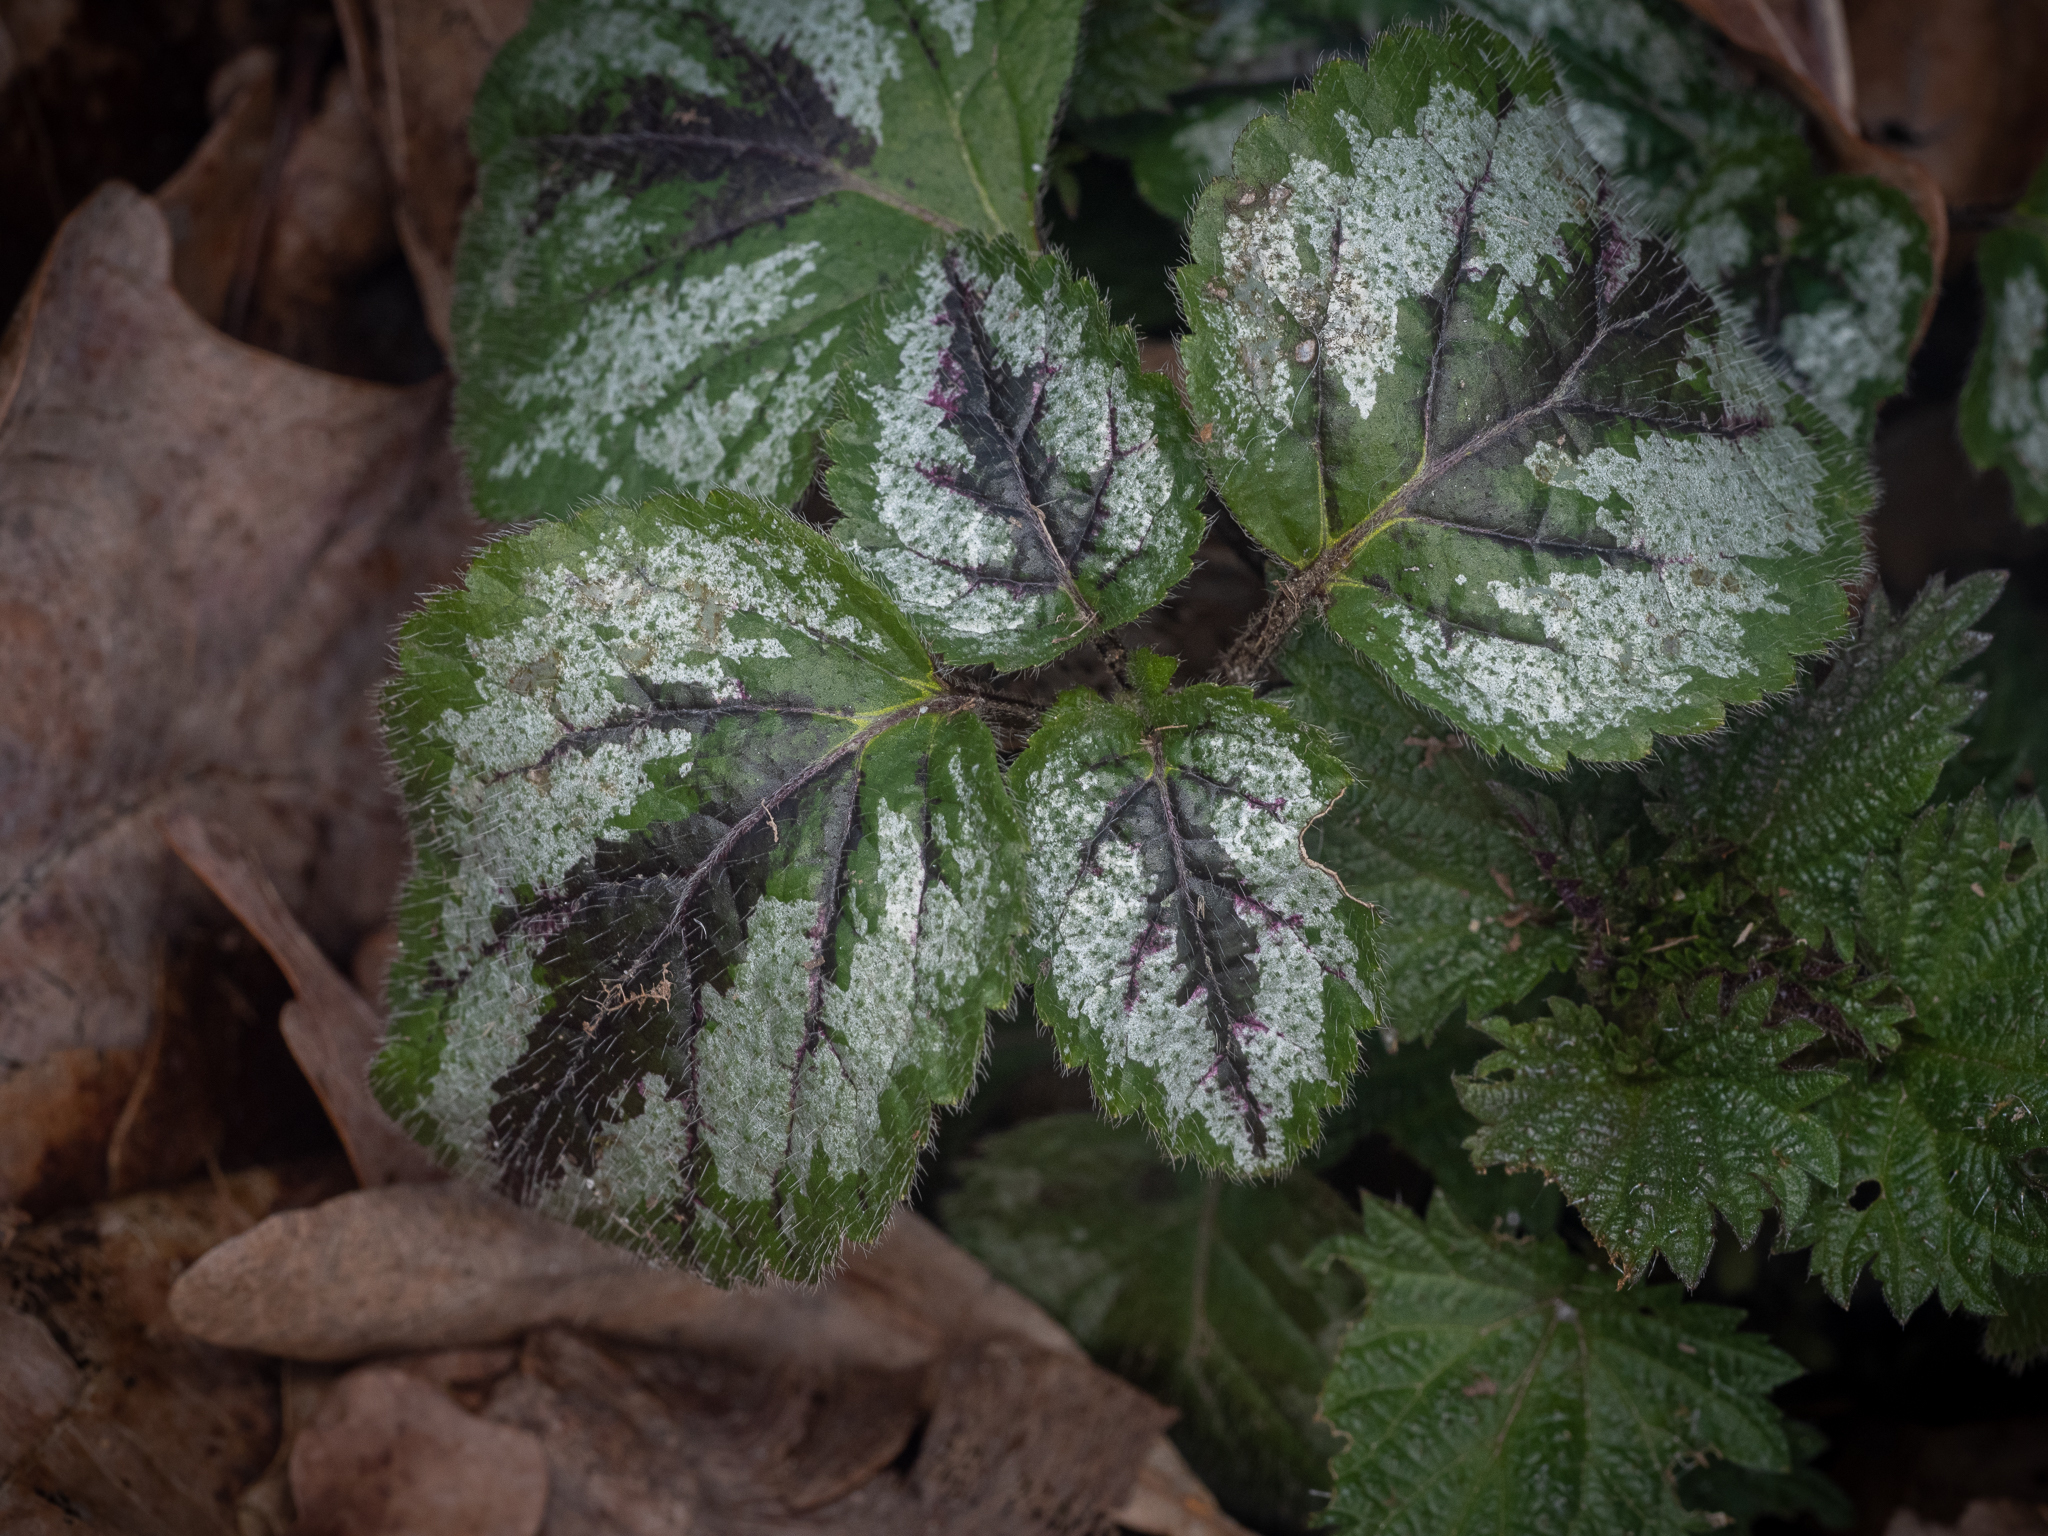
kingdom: Plantae
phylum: Tracheophyta
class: Magnoliopsida
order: Lamiales
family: Lamiaceae
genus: Lamium
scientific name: Lamium galeobdolon
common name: Yellow archangel
